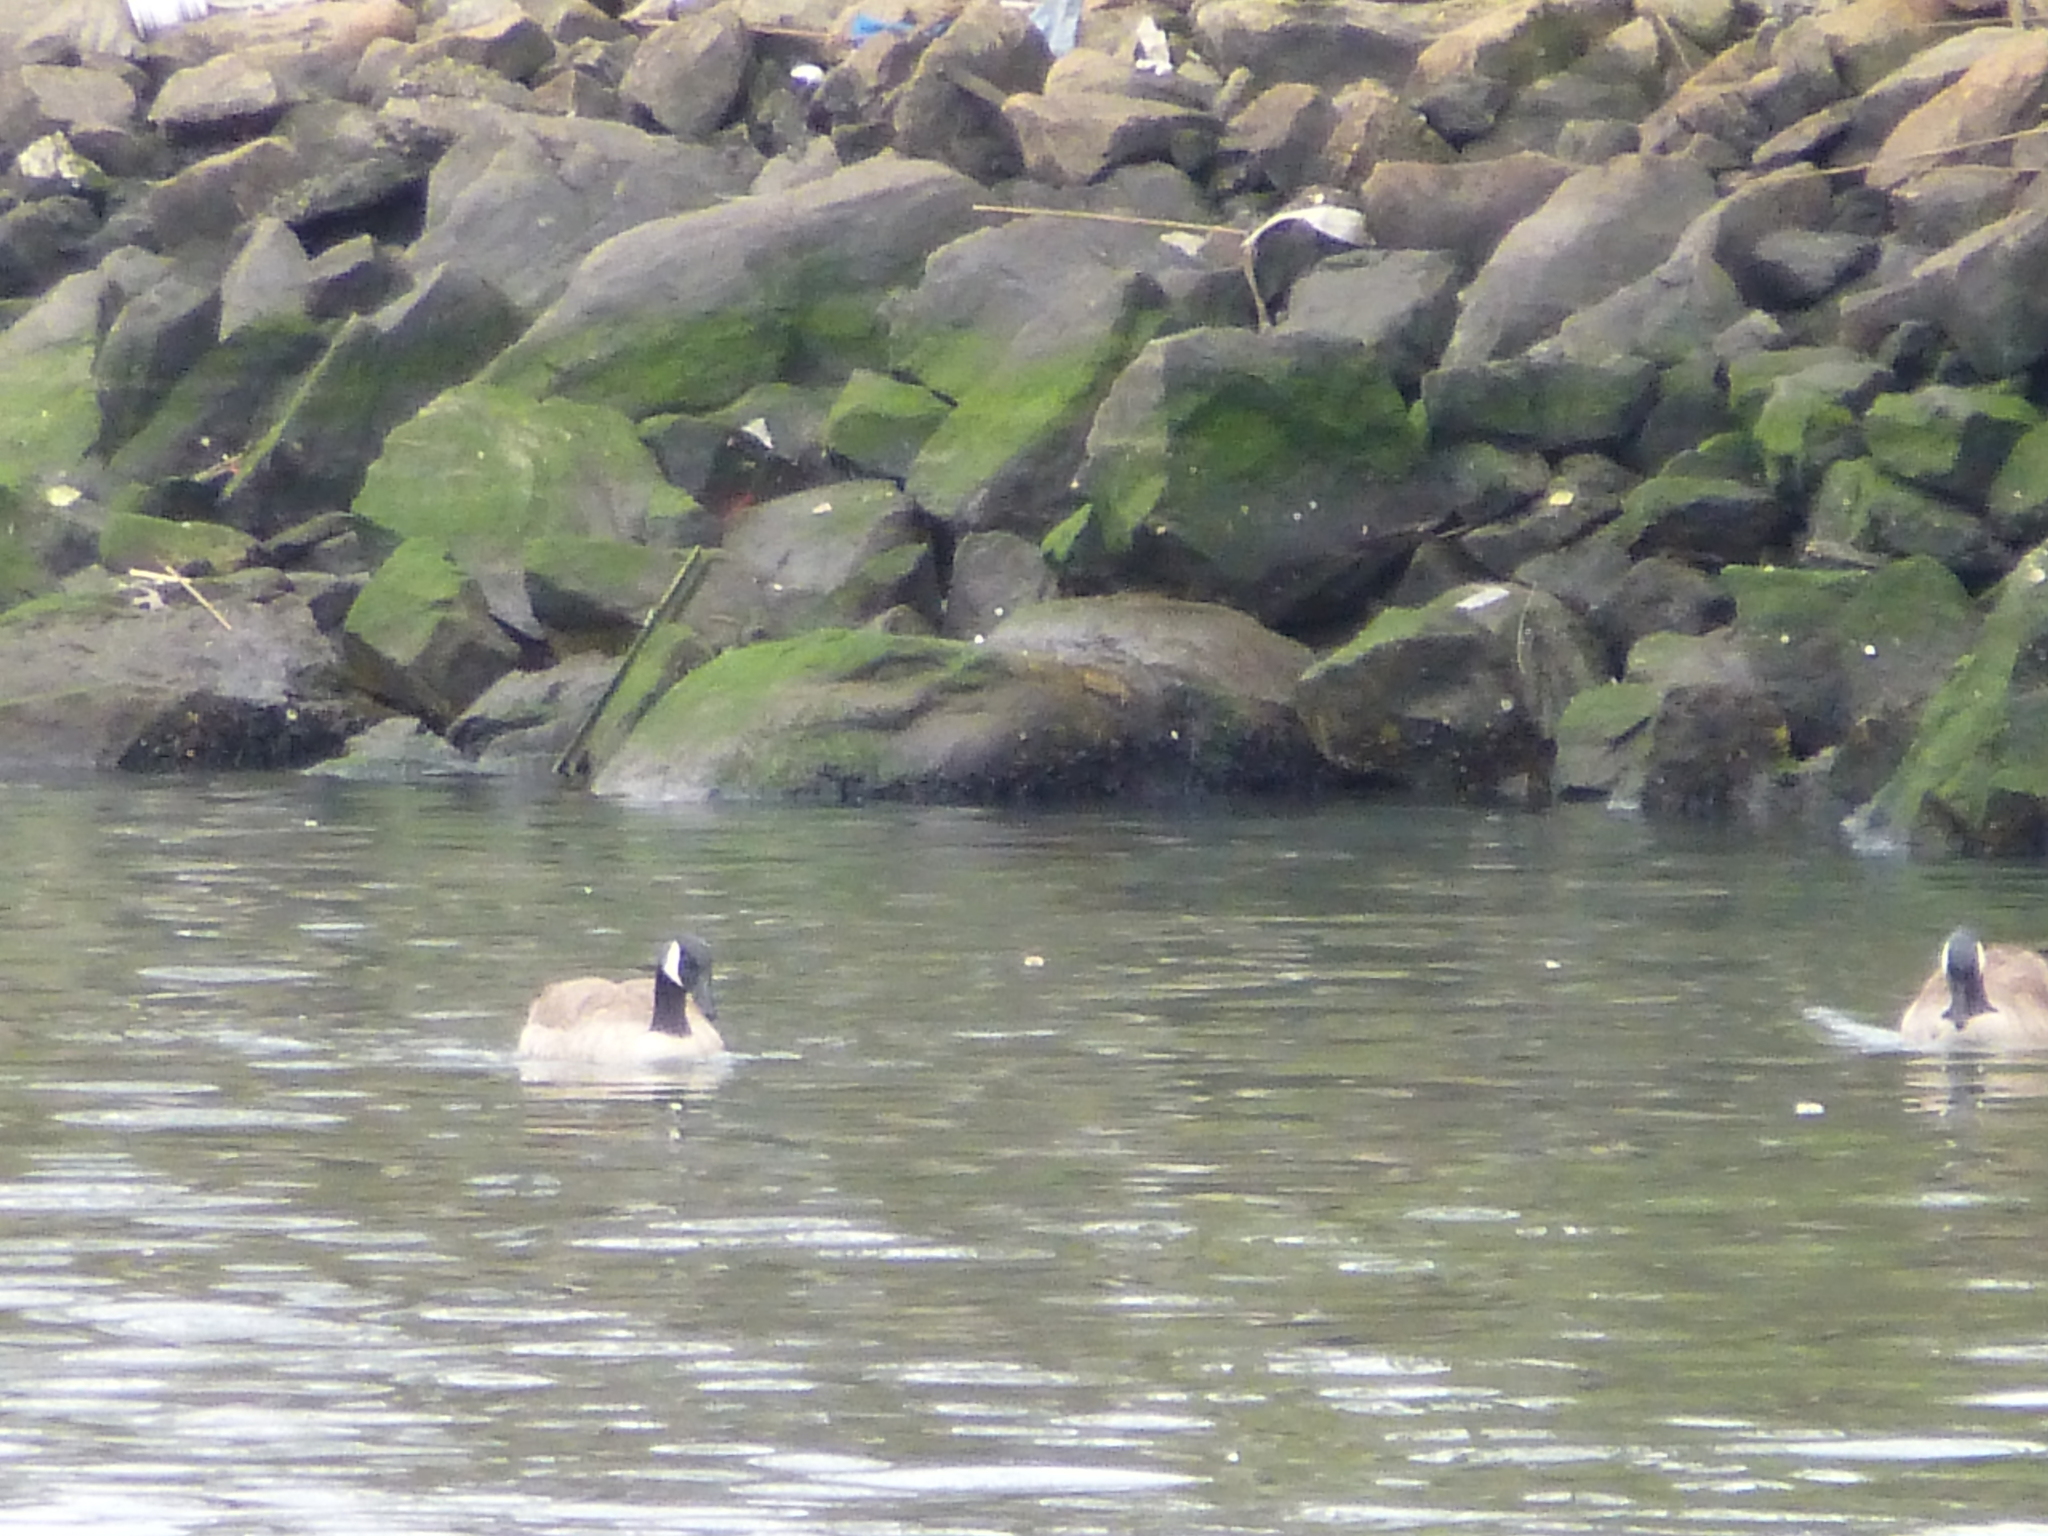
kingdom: Animalia
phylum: Chordata
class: Aves
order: Anseriformes
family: Anatidae
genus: Branta
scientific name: Branta canadensis
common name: Canada goose
